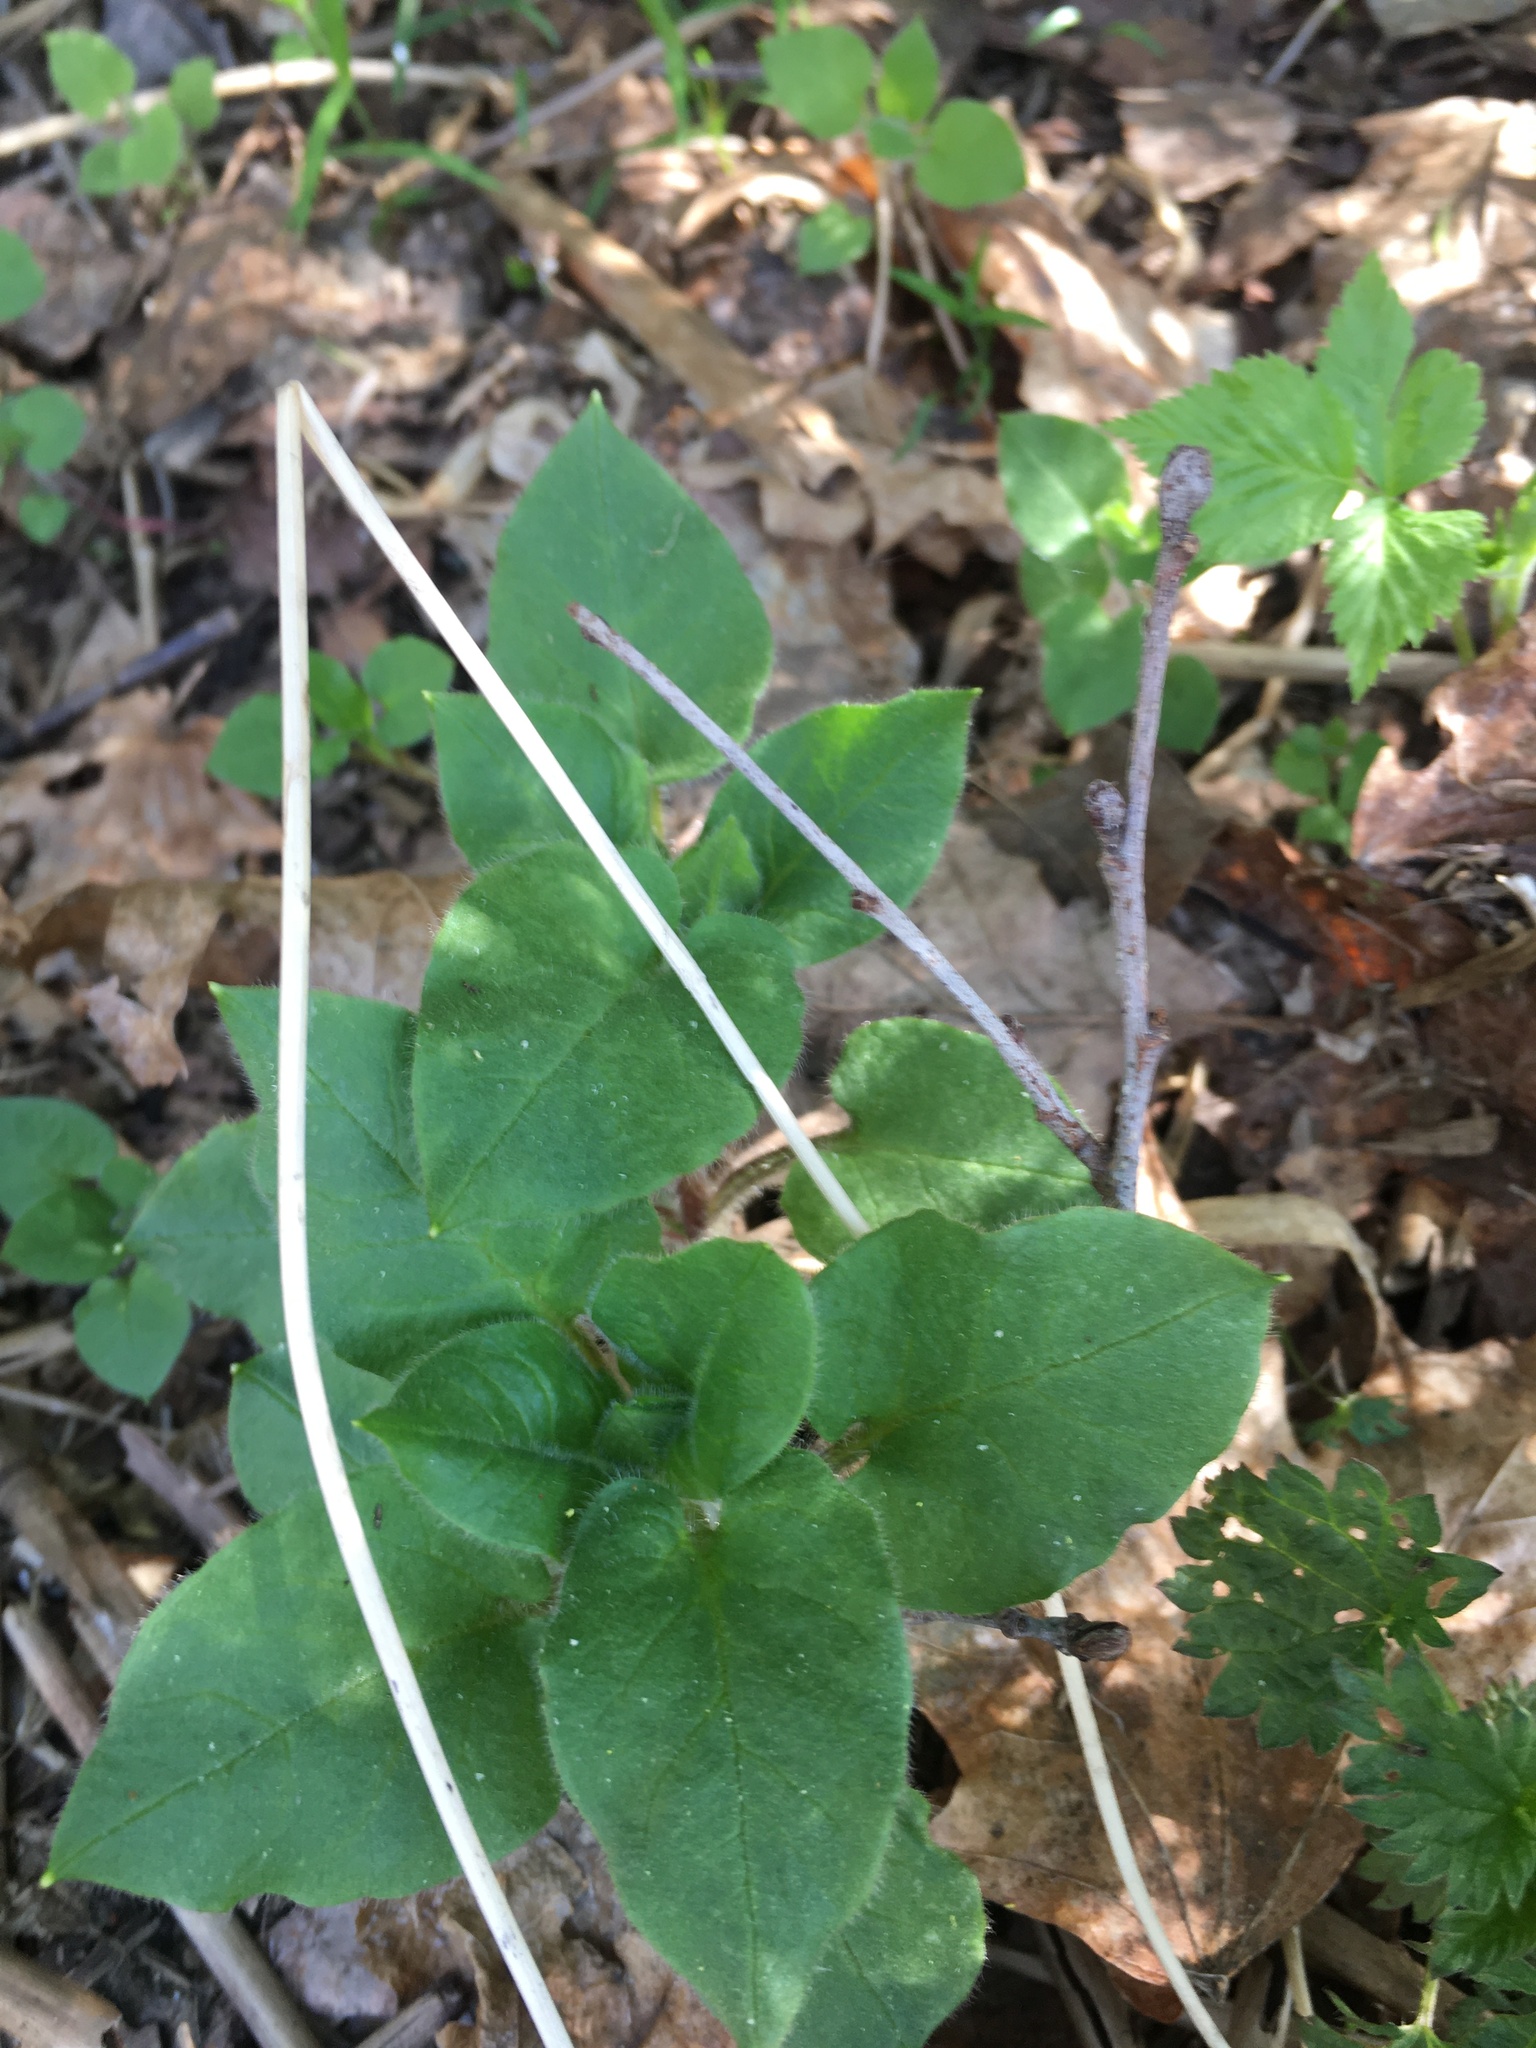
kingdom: Plantae
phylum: Tracheophyta
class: Magnoliopsida
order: Boraginales
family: Boraginaceae
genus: Pulmonaria
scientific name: Pulmonaria obscura
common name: Suffolk lungwort
